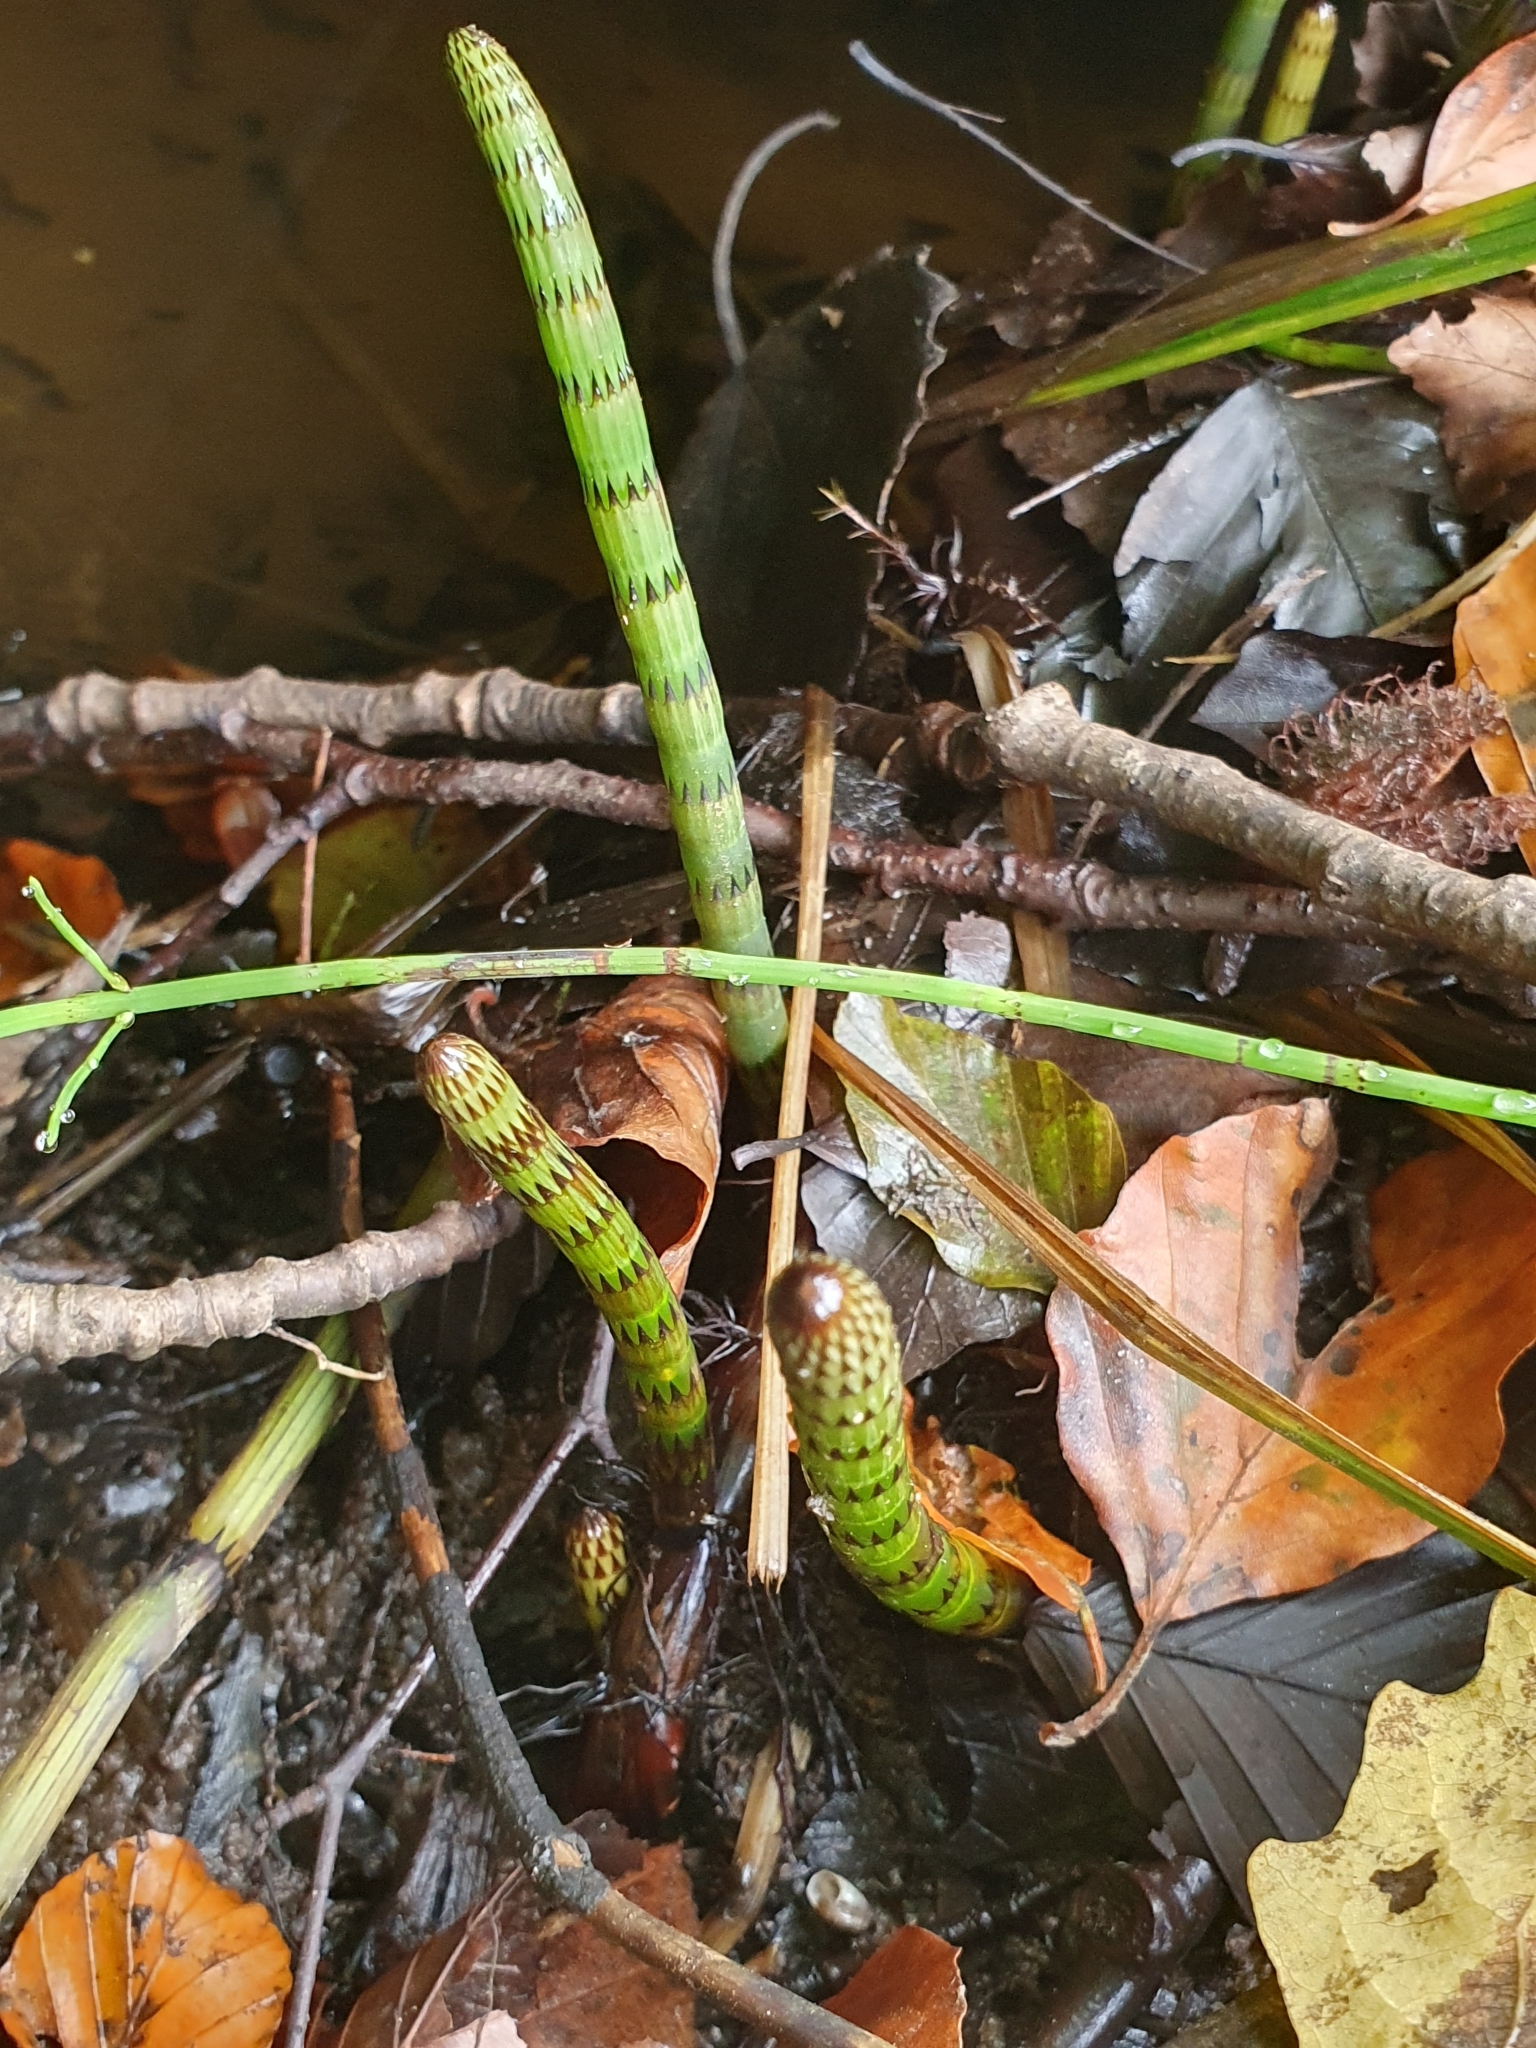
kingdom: Plantae
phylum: Tracheophyta
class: Polypodiopsida
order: Equisetales
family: Equisetaceae
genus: Equisetum
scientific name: Equisetum fluviatile
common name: Water horsetail
